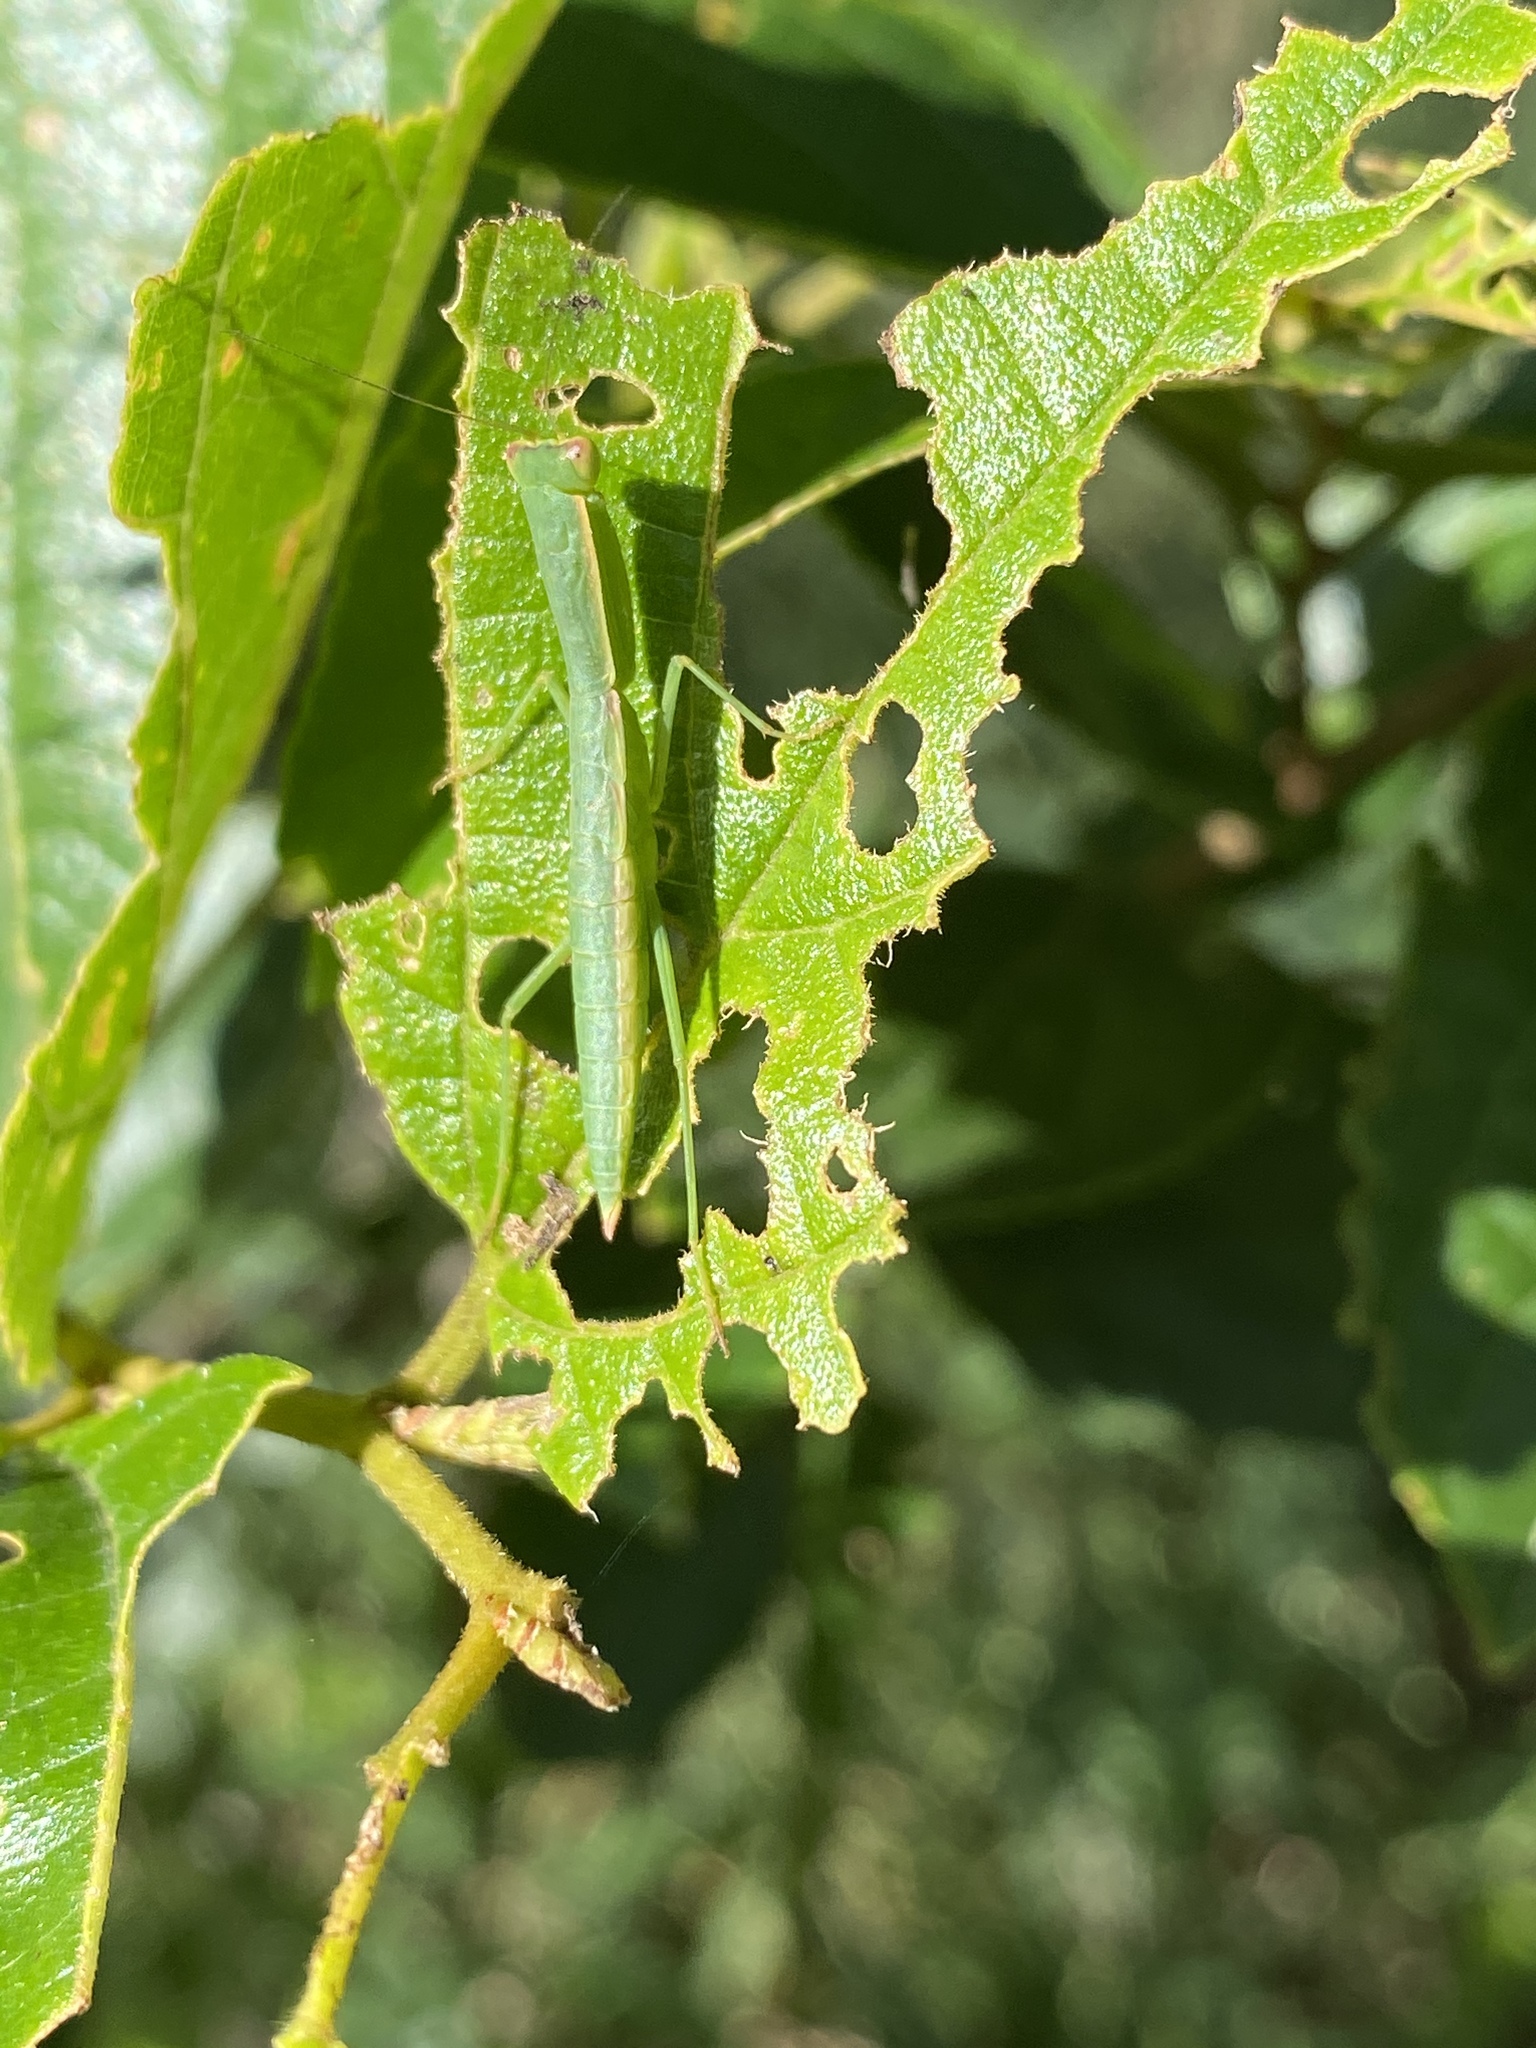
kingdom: Animalia
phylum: Arthropoda
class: Insecta
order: Mantodea
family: Mantidae
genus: Orthodera
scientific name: Orthodera ministralis
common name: Mantis
